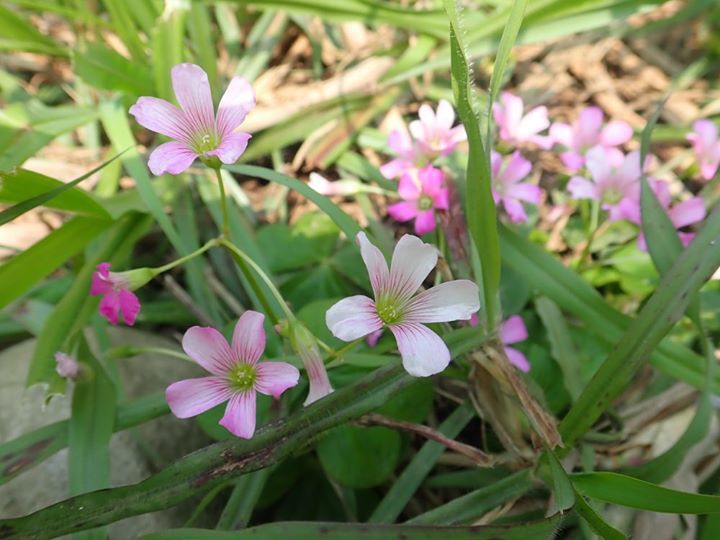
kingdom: Plantae
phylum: Tracheophyta
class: Magnoliopsida
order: Oxalidales
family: Oxalidaceae
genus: Oxalis
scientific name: Oxalis debilis
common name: Large-flowered pink-sorrel
